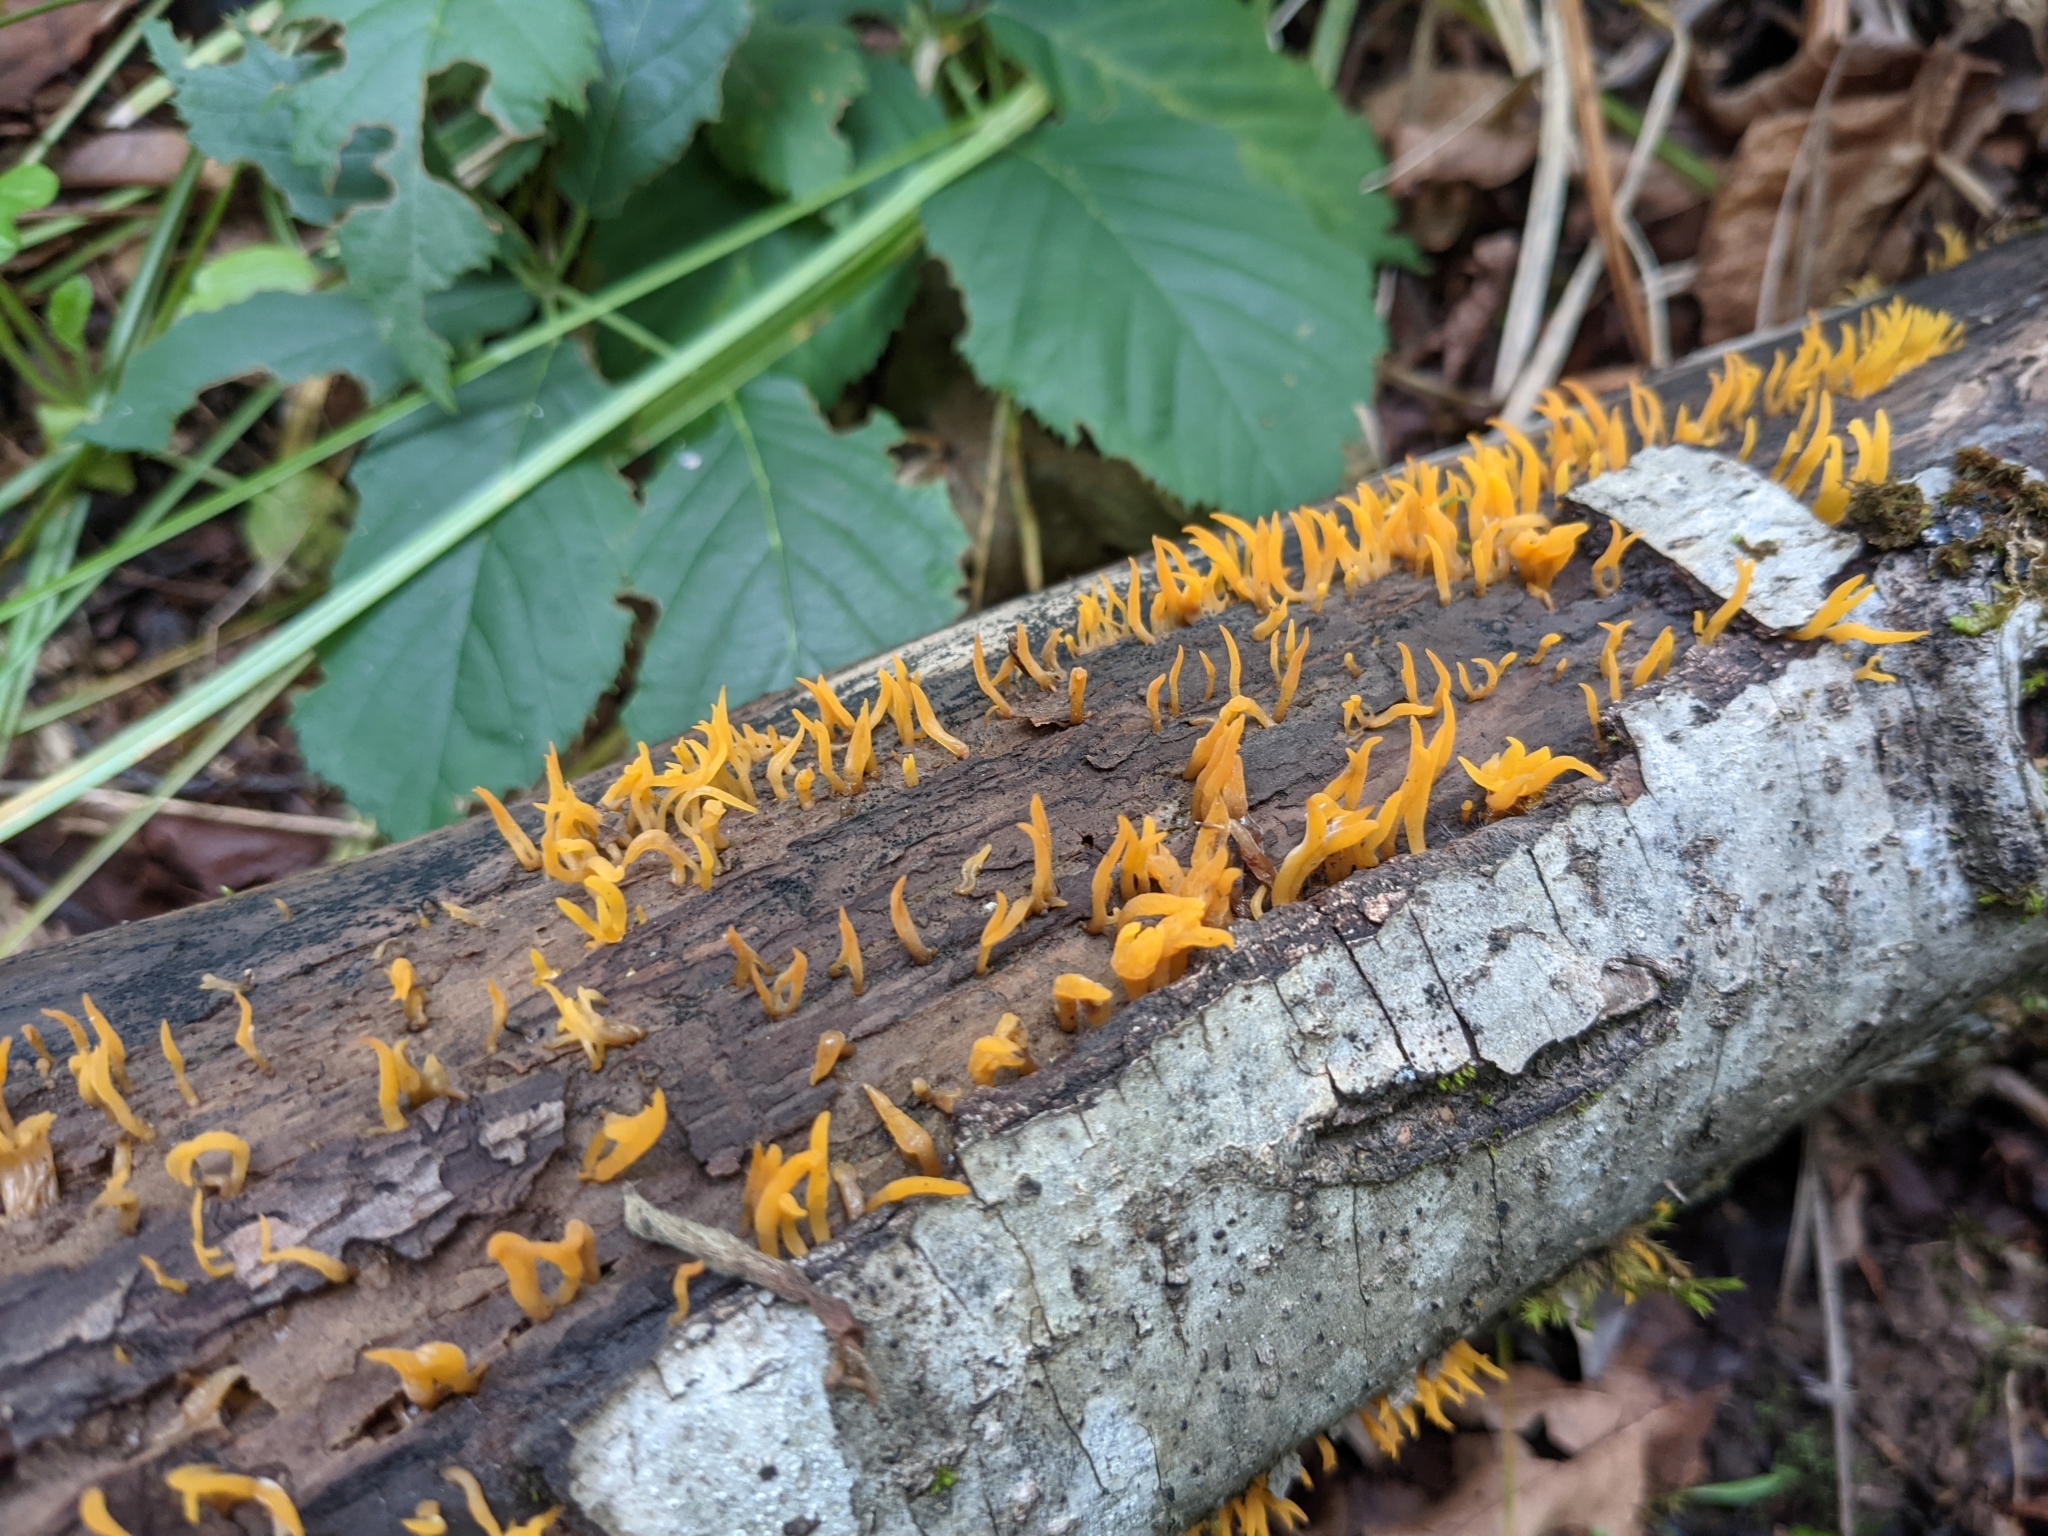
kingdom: Fungi
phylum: Basidiomycota
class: Dacrymycetes
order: Dacrymycetales
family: Dacrymycetaceae
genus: Calocera
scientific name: Calocera cornea
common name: Small stagshorn
